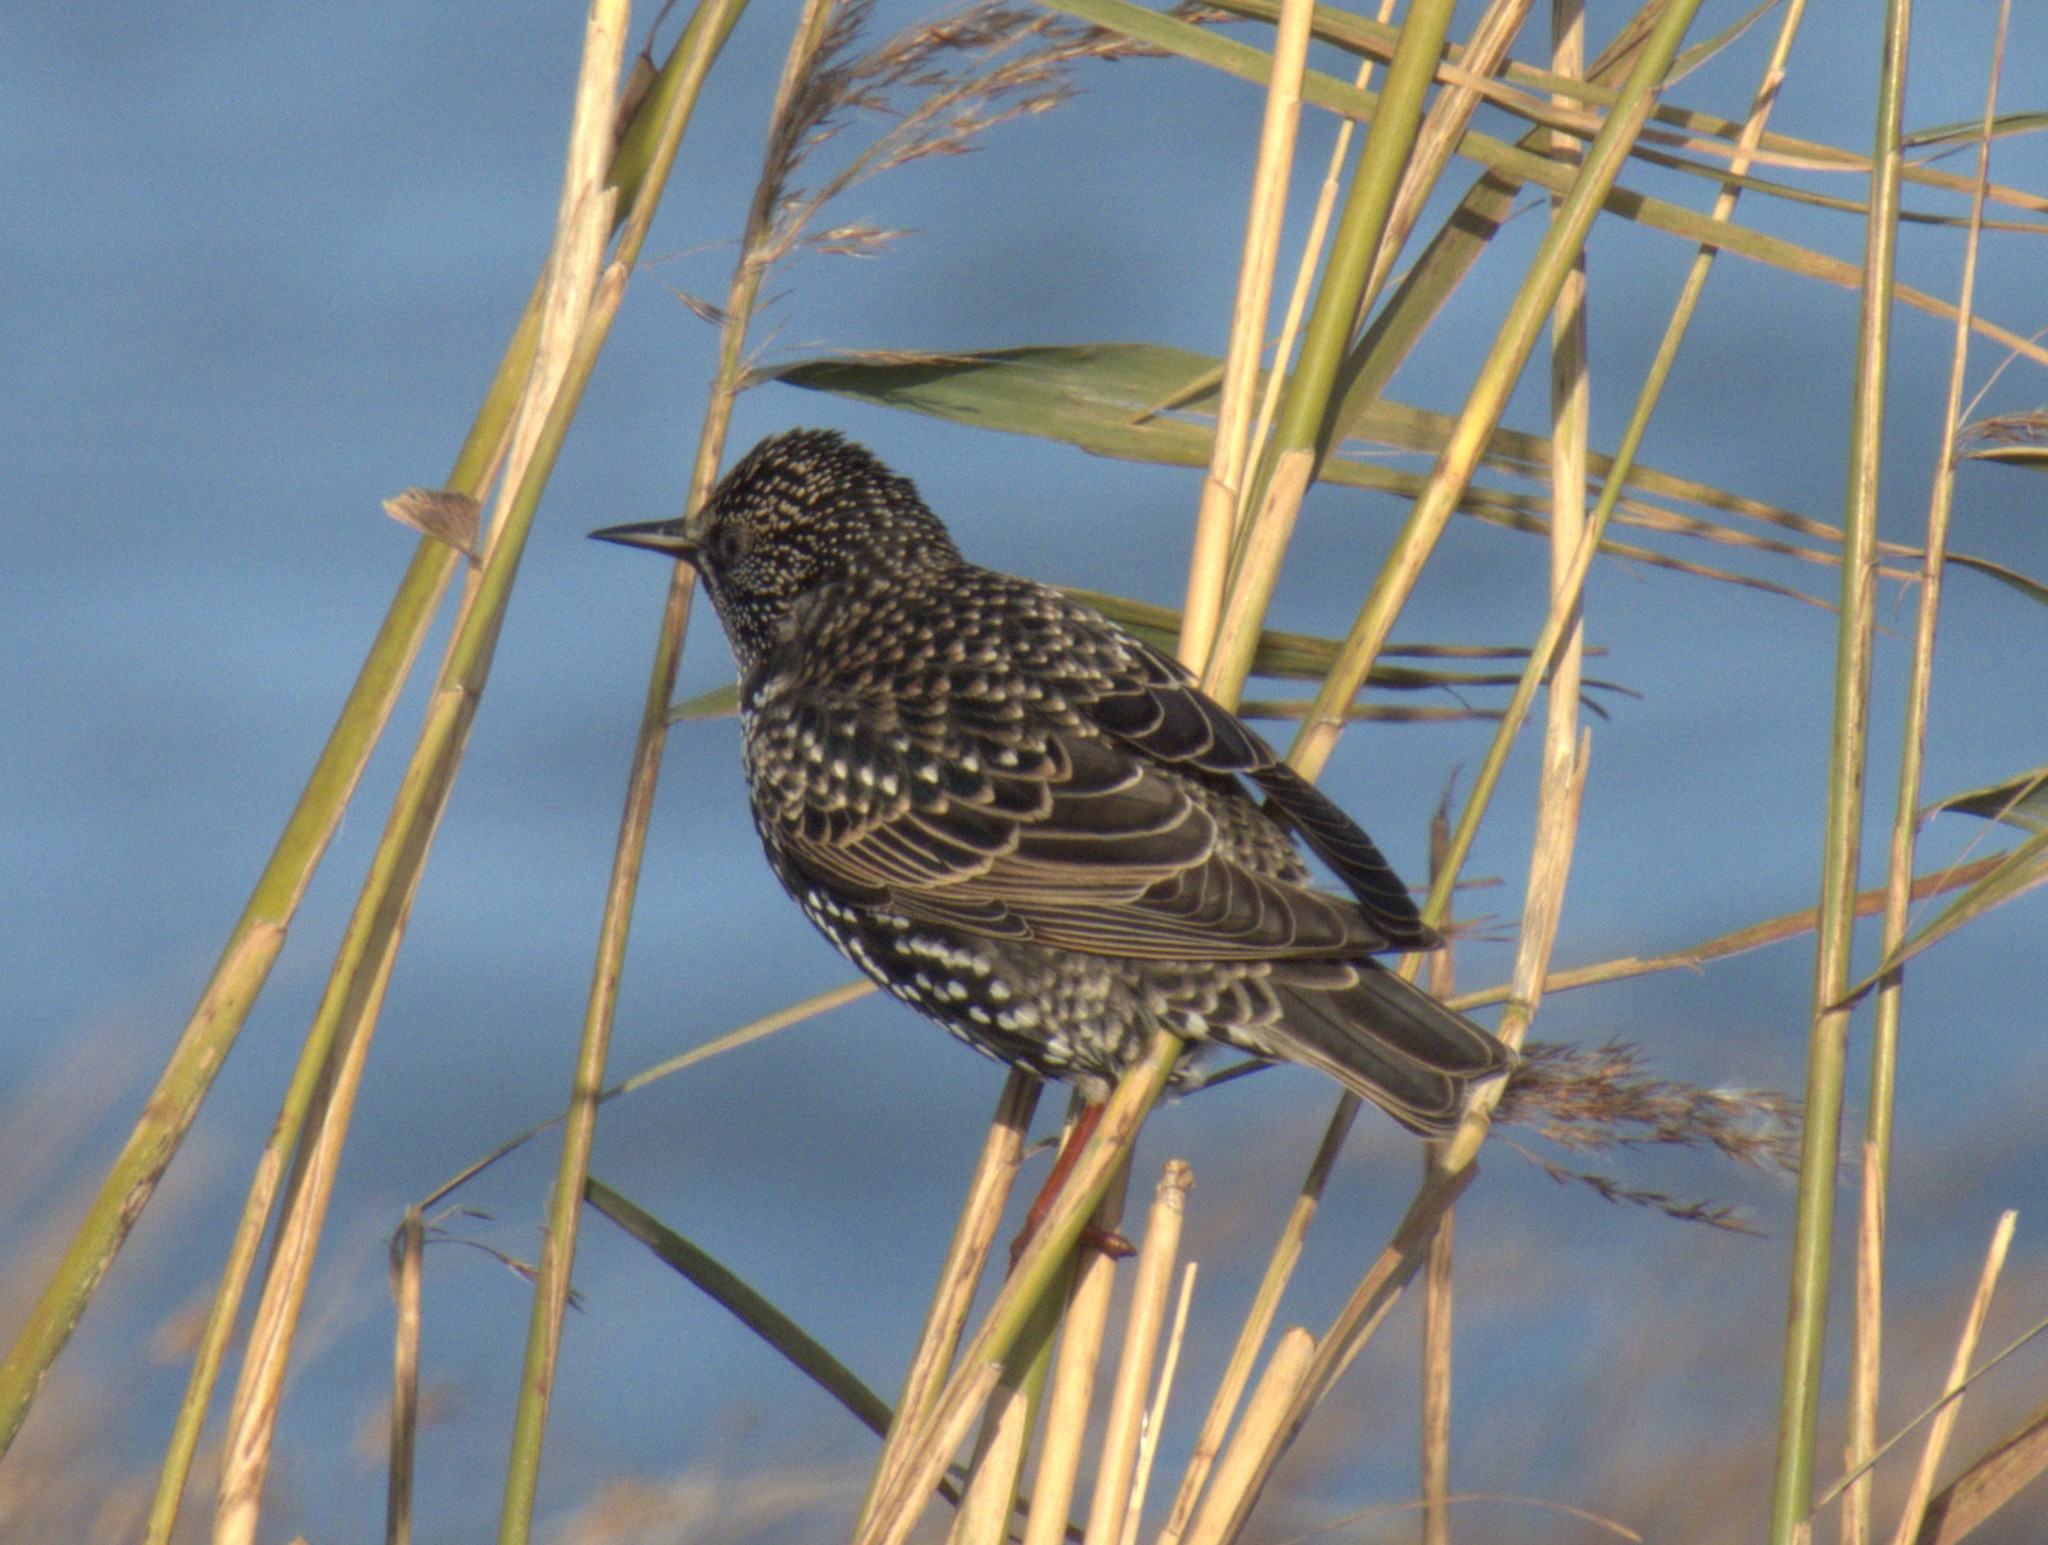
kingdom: Animalia
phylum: Chordata
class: Aves
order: Passeriformes
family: Sturnidae
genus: Sturnus
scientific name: Sturnus vulgaris
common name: Common starling
